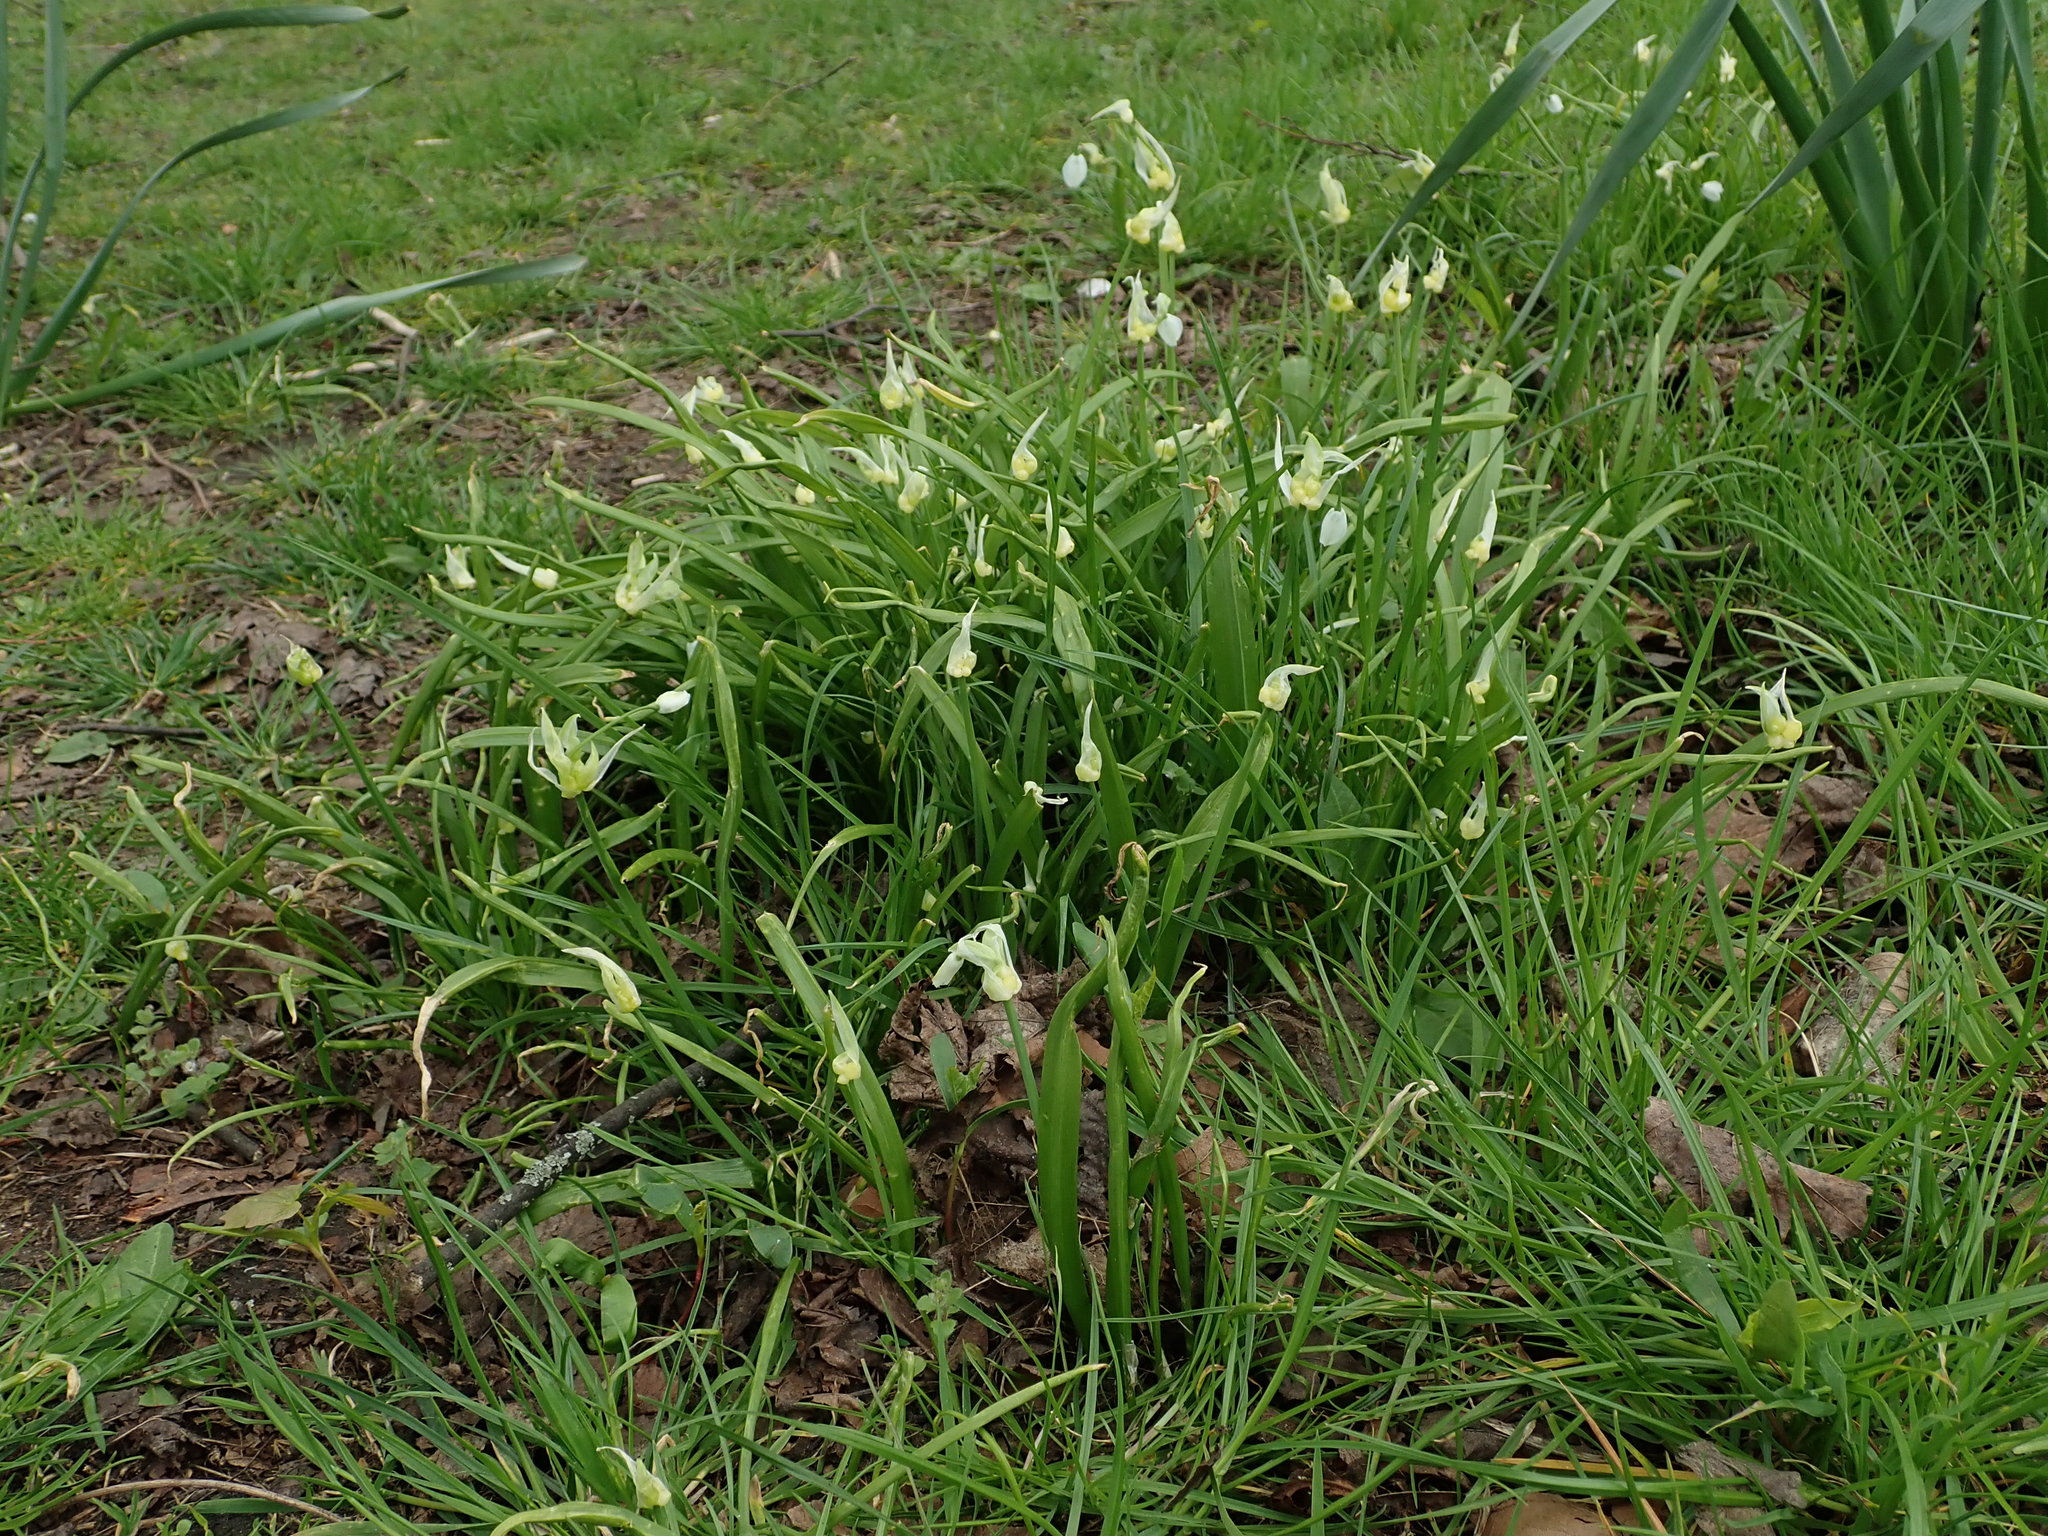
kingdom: Plantae
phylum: Tracheophyta
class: Liliopsida
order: Asparagales
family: Amaryllidaceae
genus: Allium
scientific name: Allium paradoxum
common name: Few-flowered garlic
